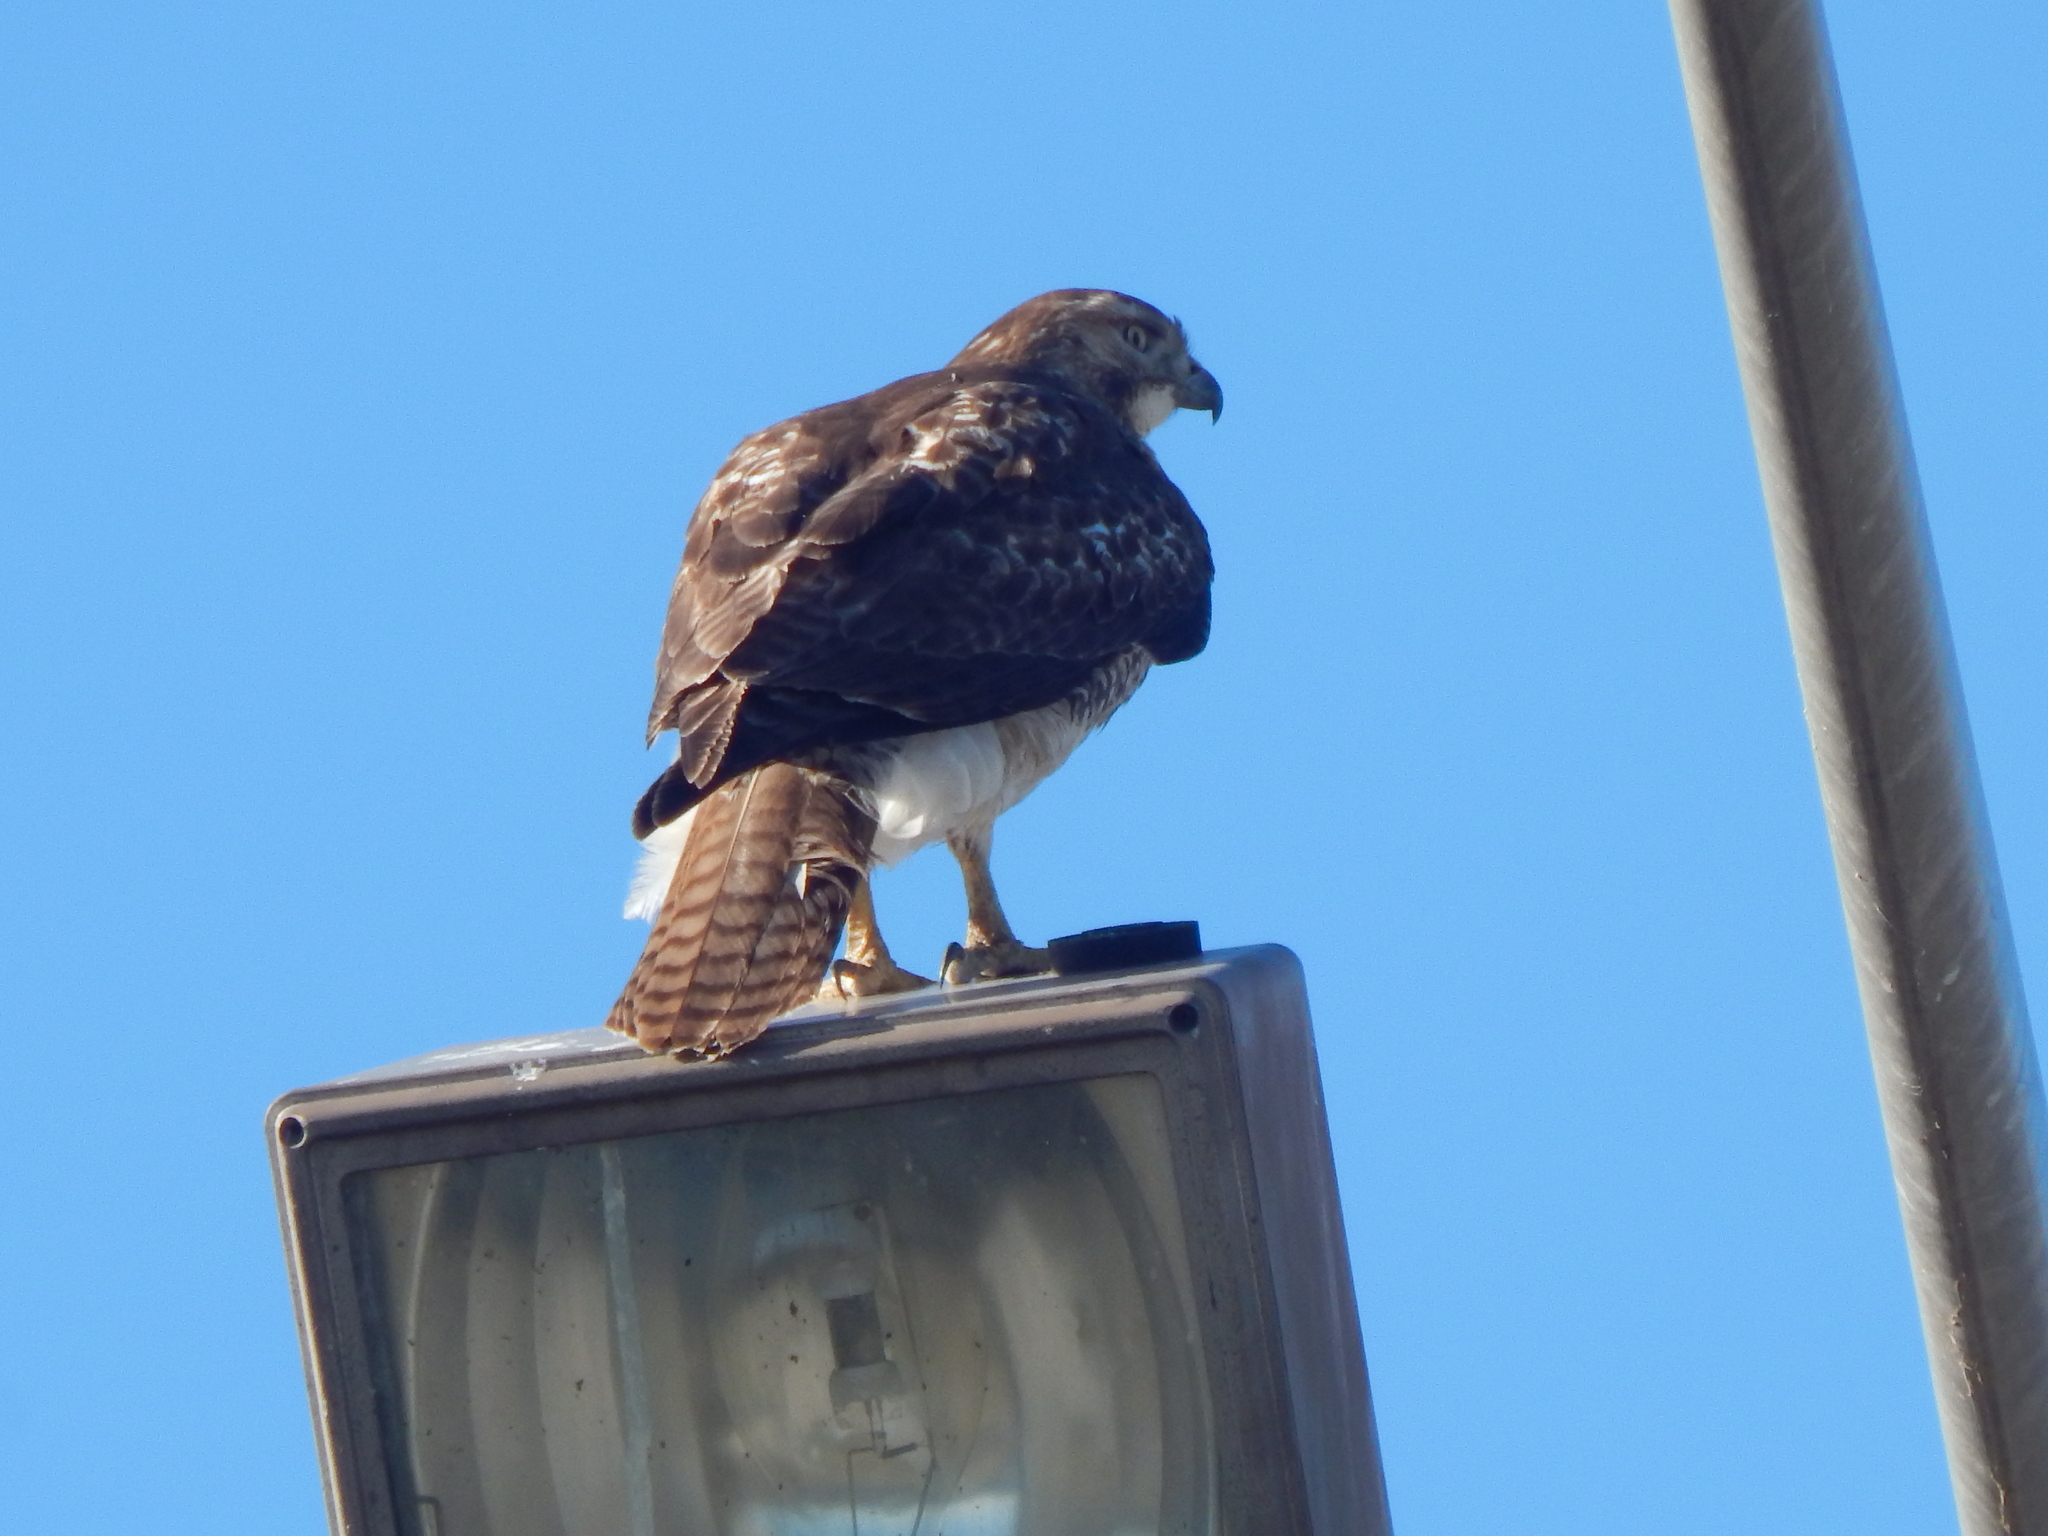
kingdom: Animalia
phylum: Chordata
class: Aves
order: Accipitriformes
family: Accipitridae
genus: Buteo
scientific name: Buteo jamaicensis
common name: Red-tailed hawk
